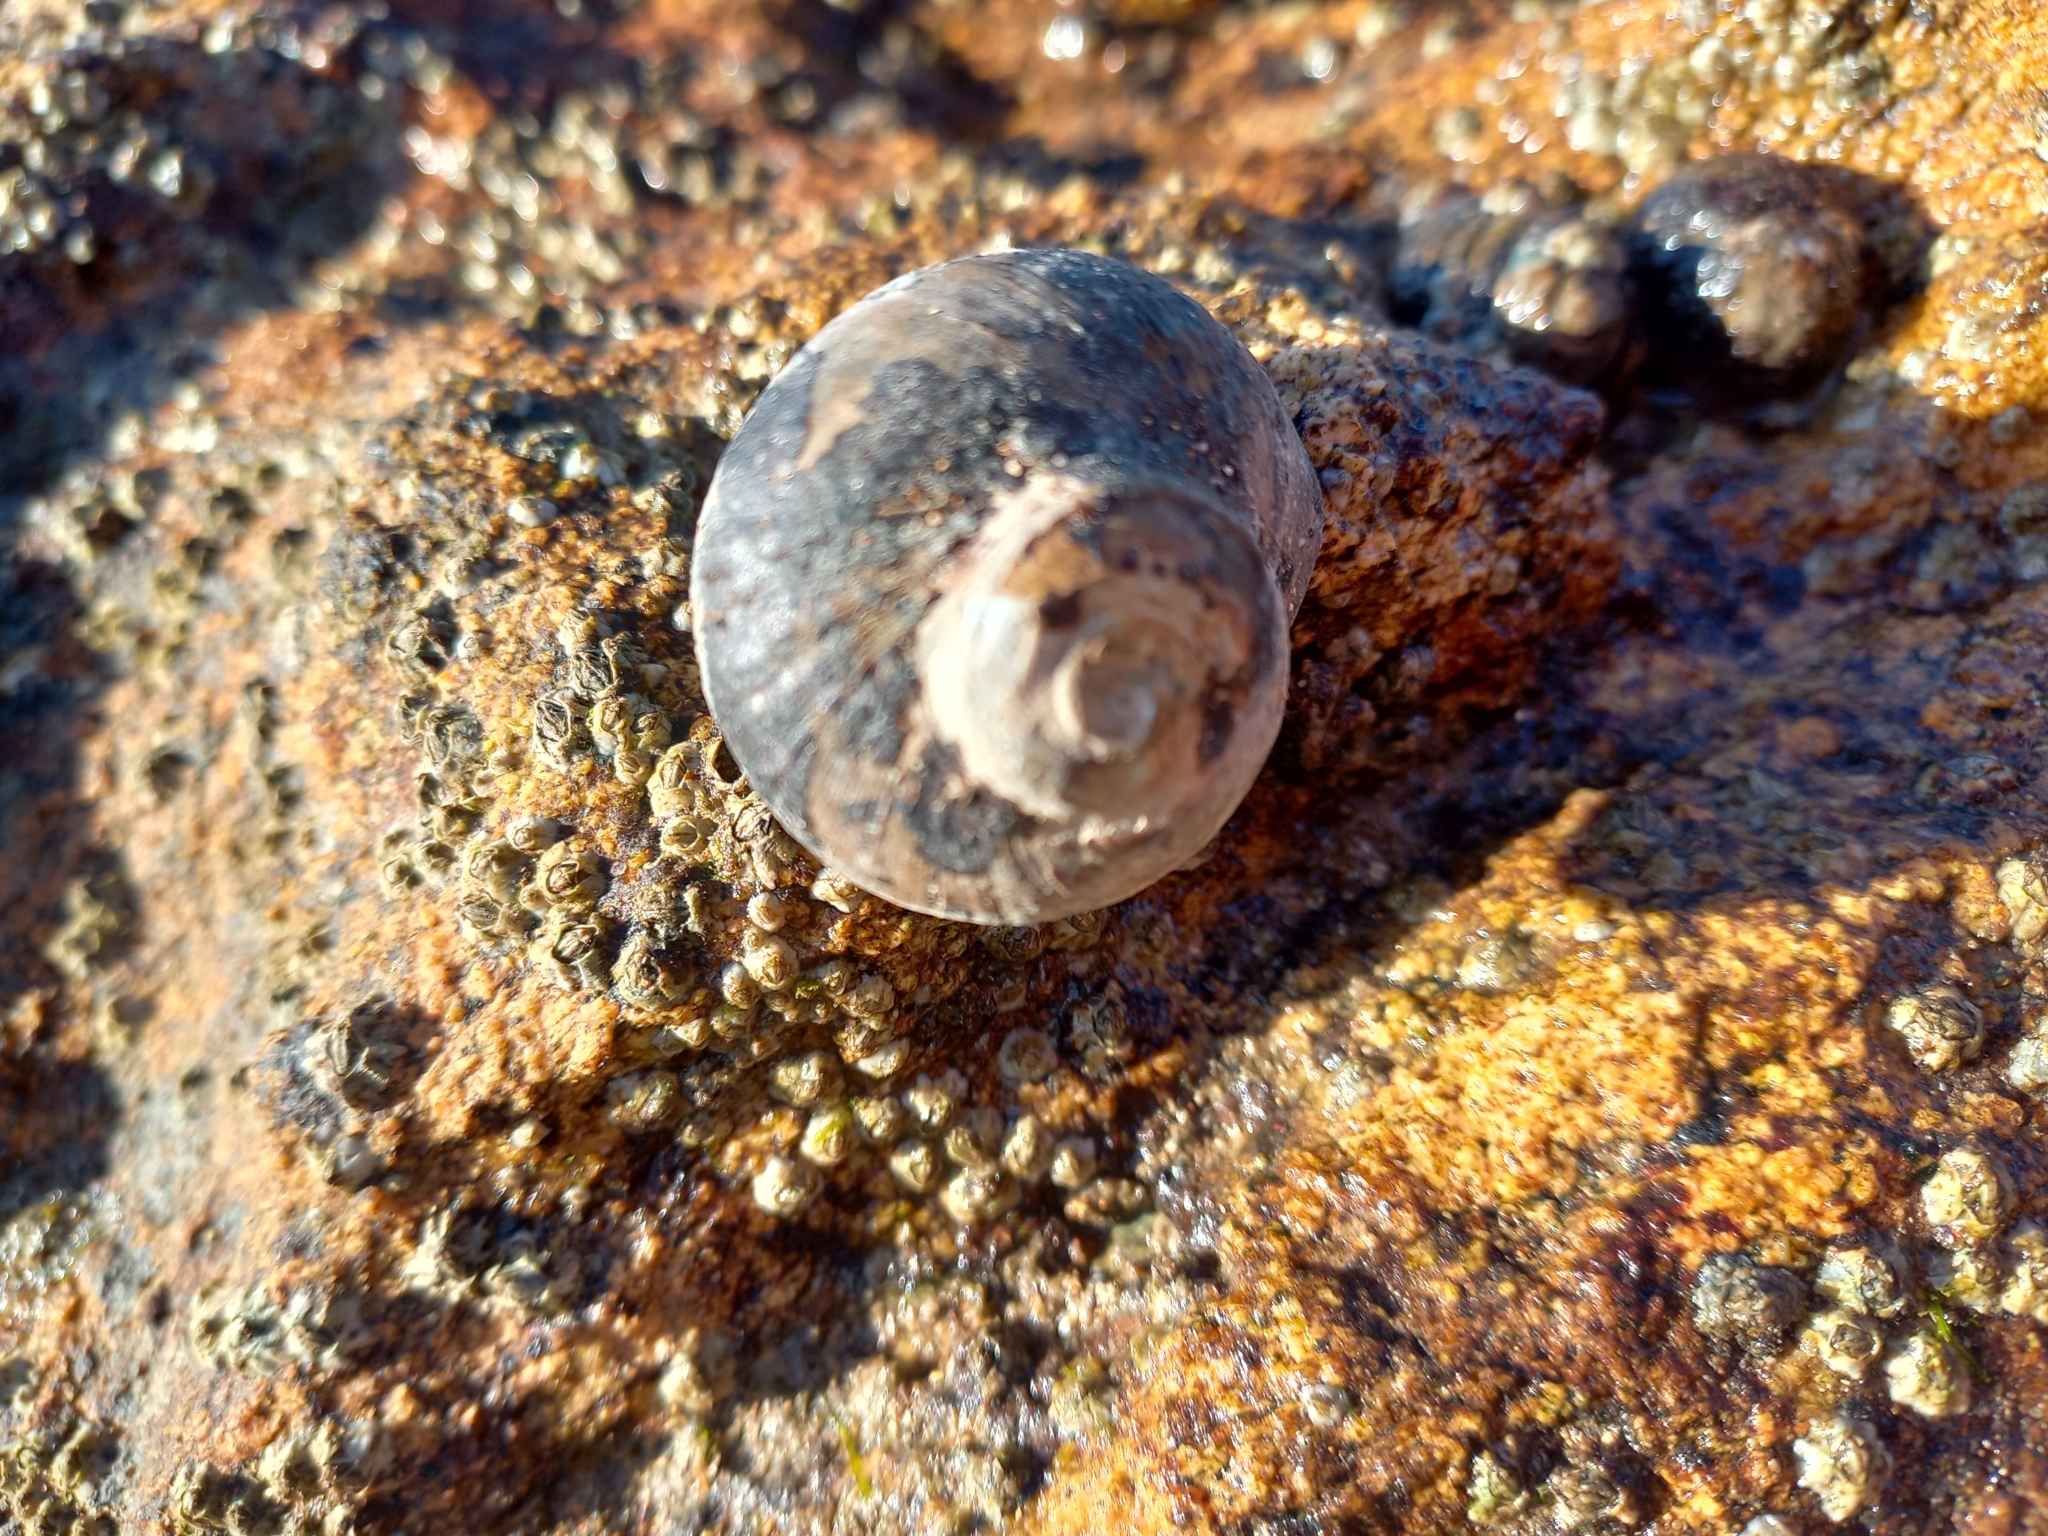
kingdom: Animalia
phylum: Mollusca
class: Gastropoda
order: Trochida
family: Turbinidae
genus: Lunella
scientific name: Lunella smaragda
